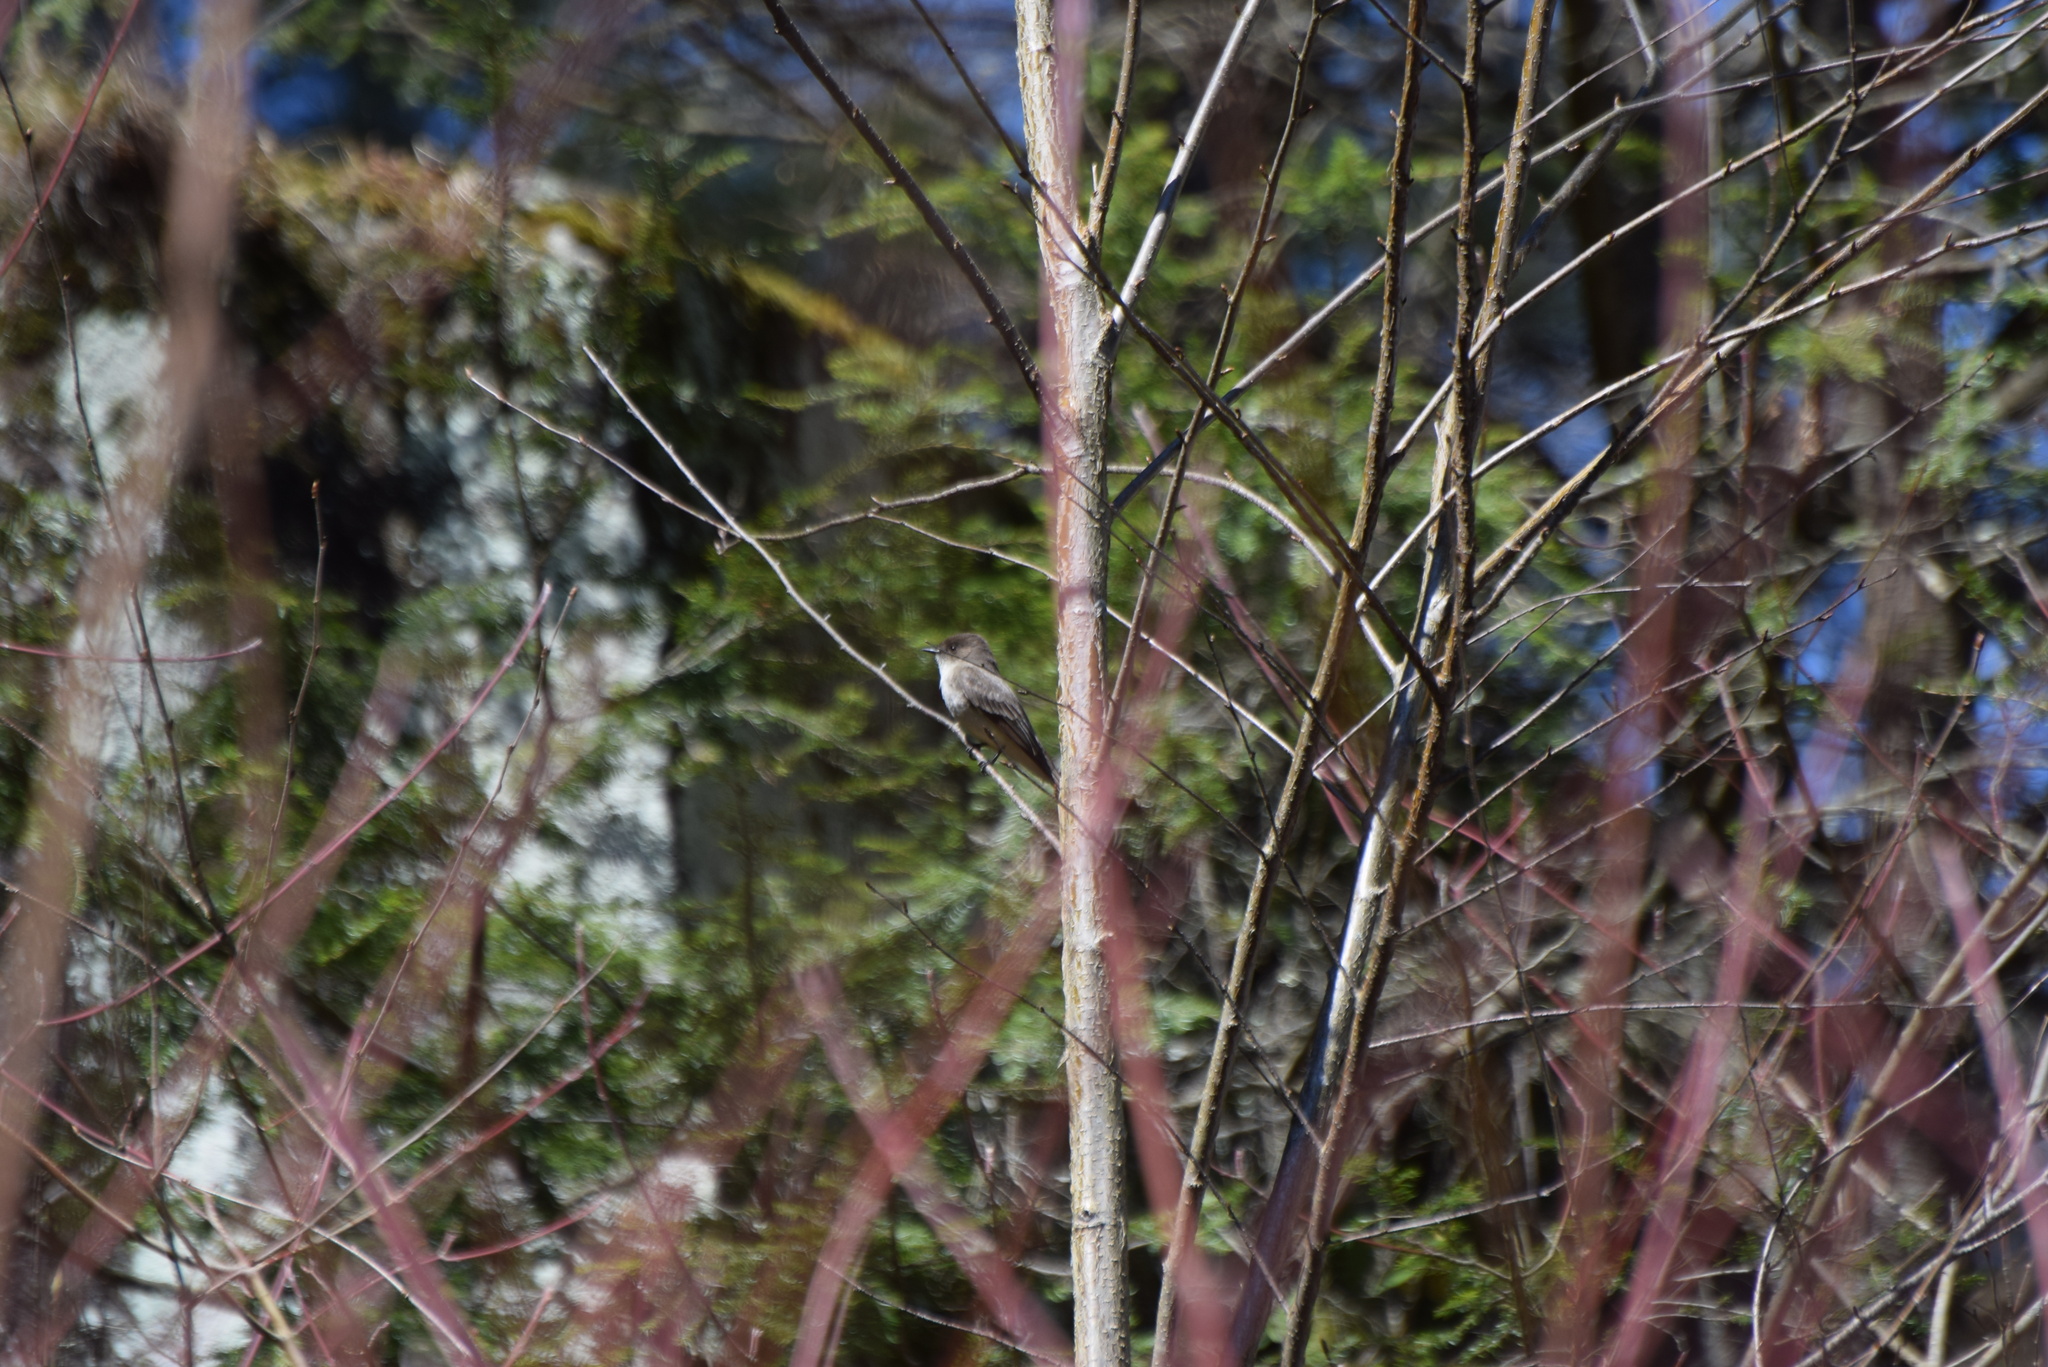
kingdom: Animalia
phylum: Chordata
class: Aves
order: Passeriformes
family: Tyrannidae
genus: Sayornis
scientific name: Sayornis phoebe
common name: Eastern phoebe
